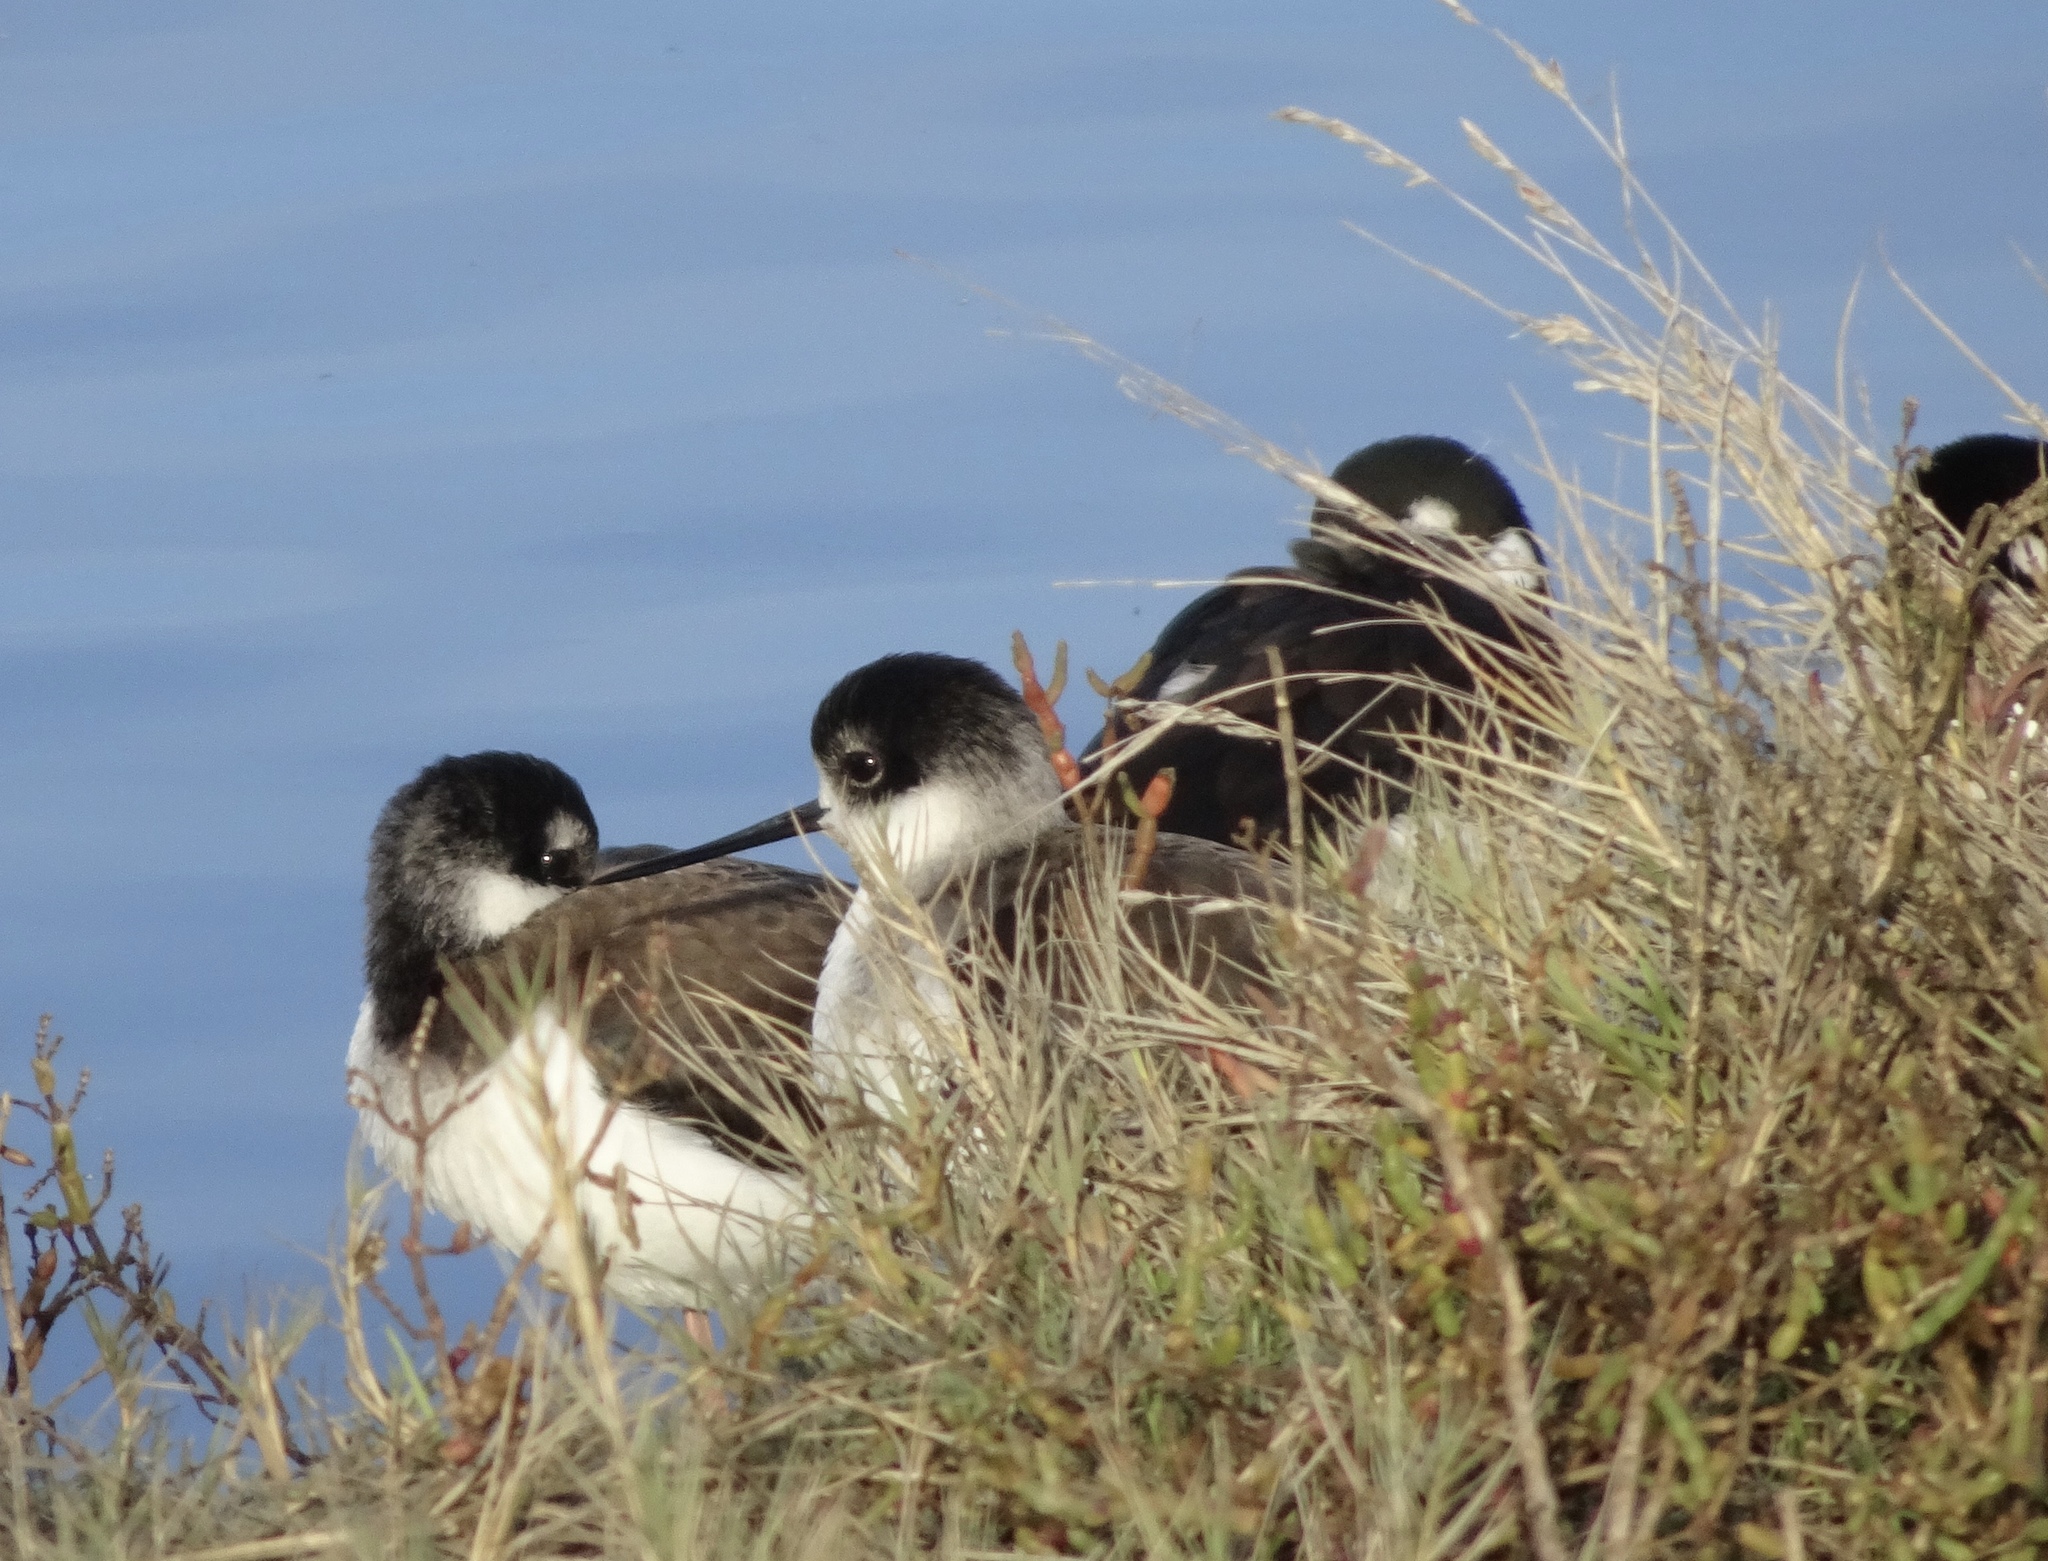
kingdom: Animalia
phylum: Chordata
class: Aves
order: Charadriiformes
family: Recurvirostridae
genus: Himantopus
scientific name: Himantopus mexicanus
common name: Black-necked stilt
